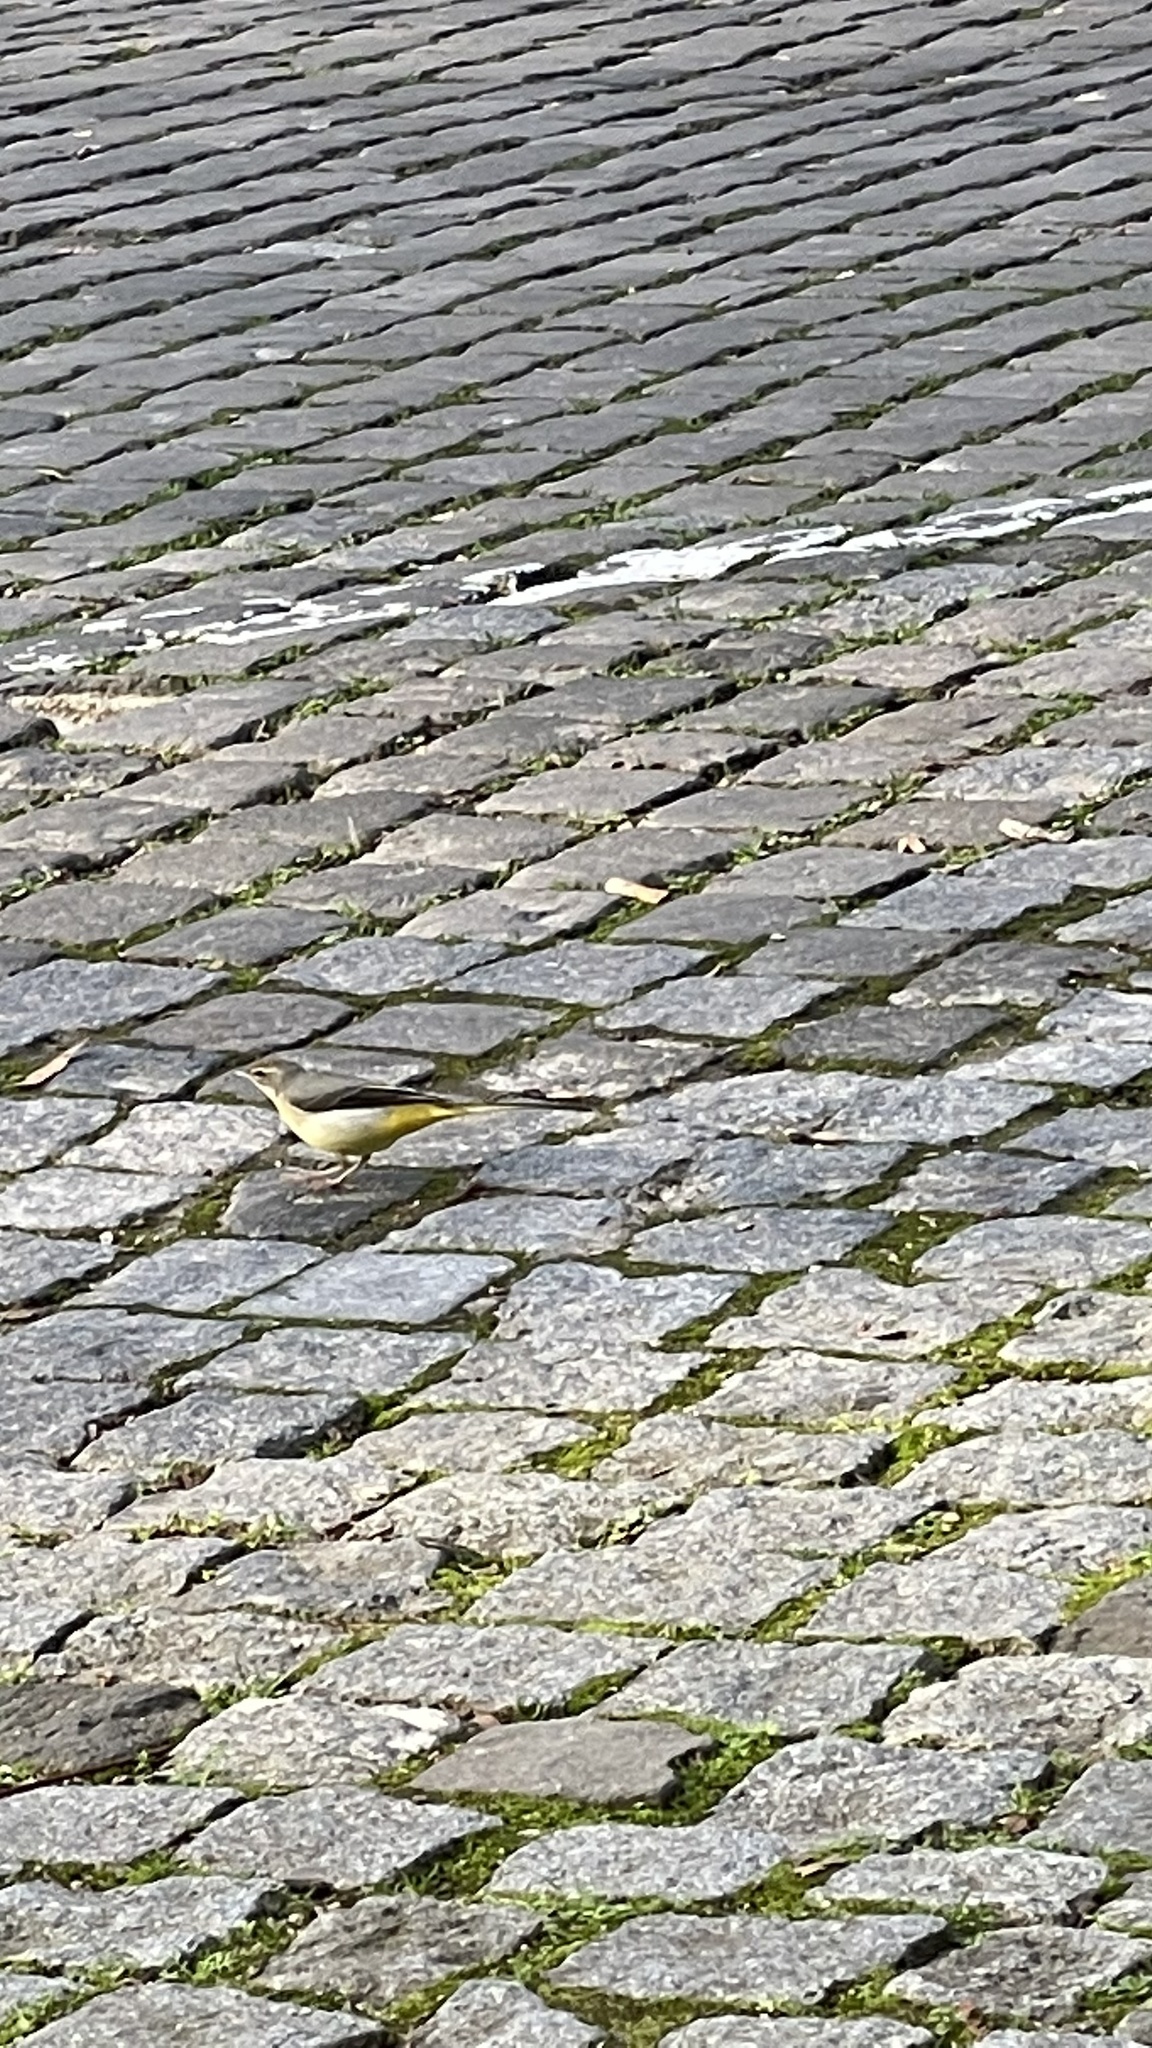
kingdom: Animalia
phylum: Chordata
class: Aves
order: Passeriformes
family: Motacillidae
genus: Motacilla
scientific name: Motacilla cinerea
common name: Grey wagtail
